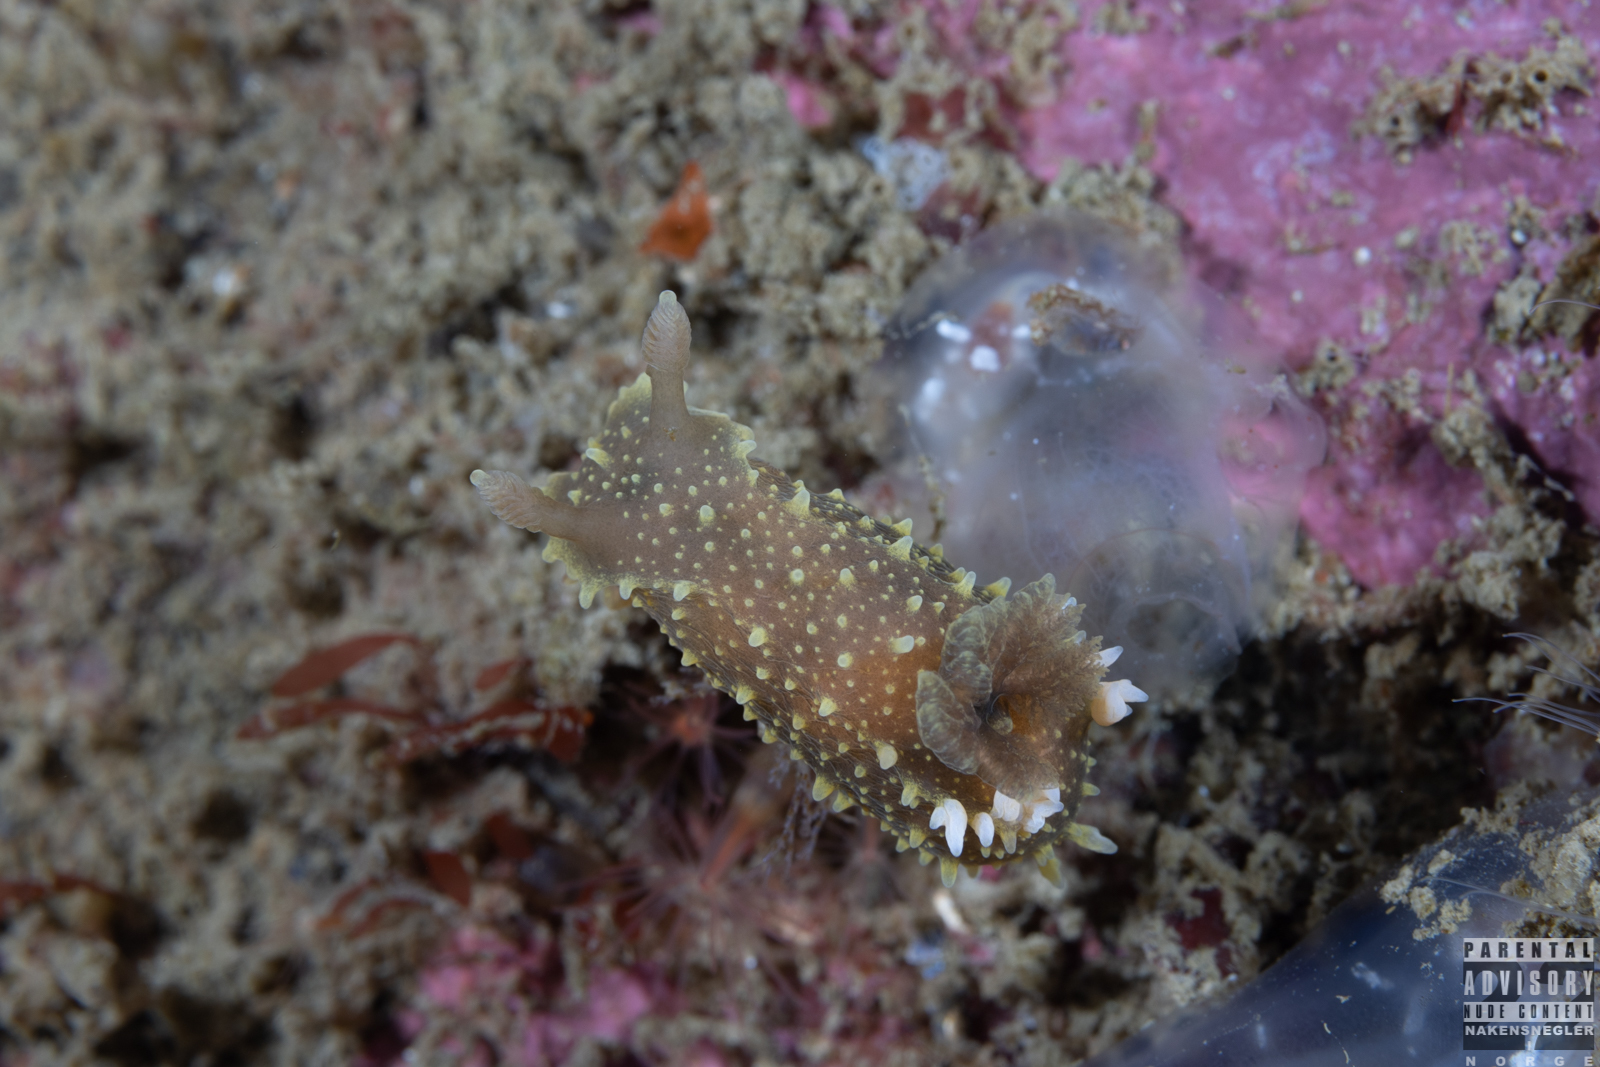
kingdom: Animalia
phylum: Mollusca
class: Gastropoda
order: Nudibranchia
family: Polyceridae
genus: Palio
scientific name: Palio dubia
